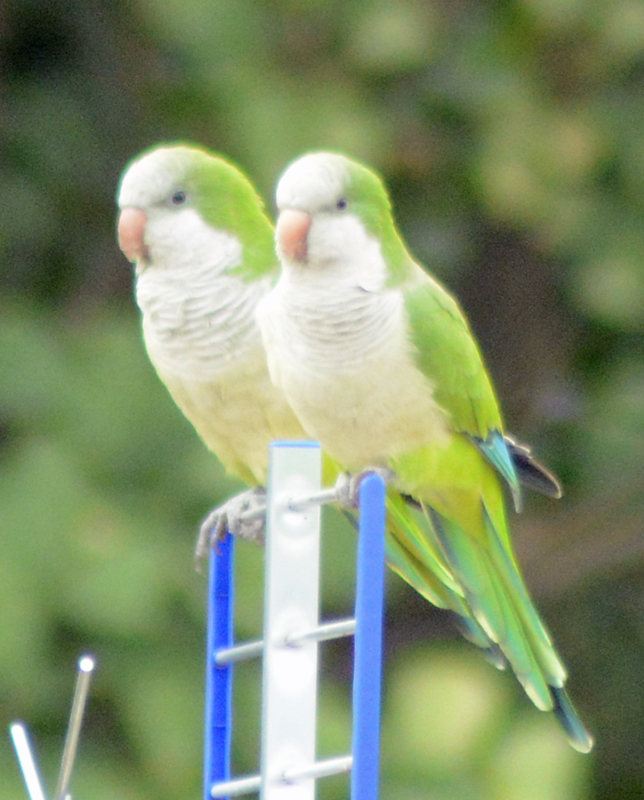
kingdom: Animalia
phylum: Chordata
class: Aves
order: Psittaciformes
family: Psittacidae
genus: Myiopsitta
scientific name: Myiopsitta monachus
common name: Monk parakeet
